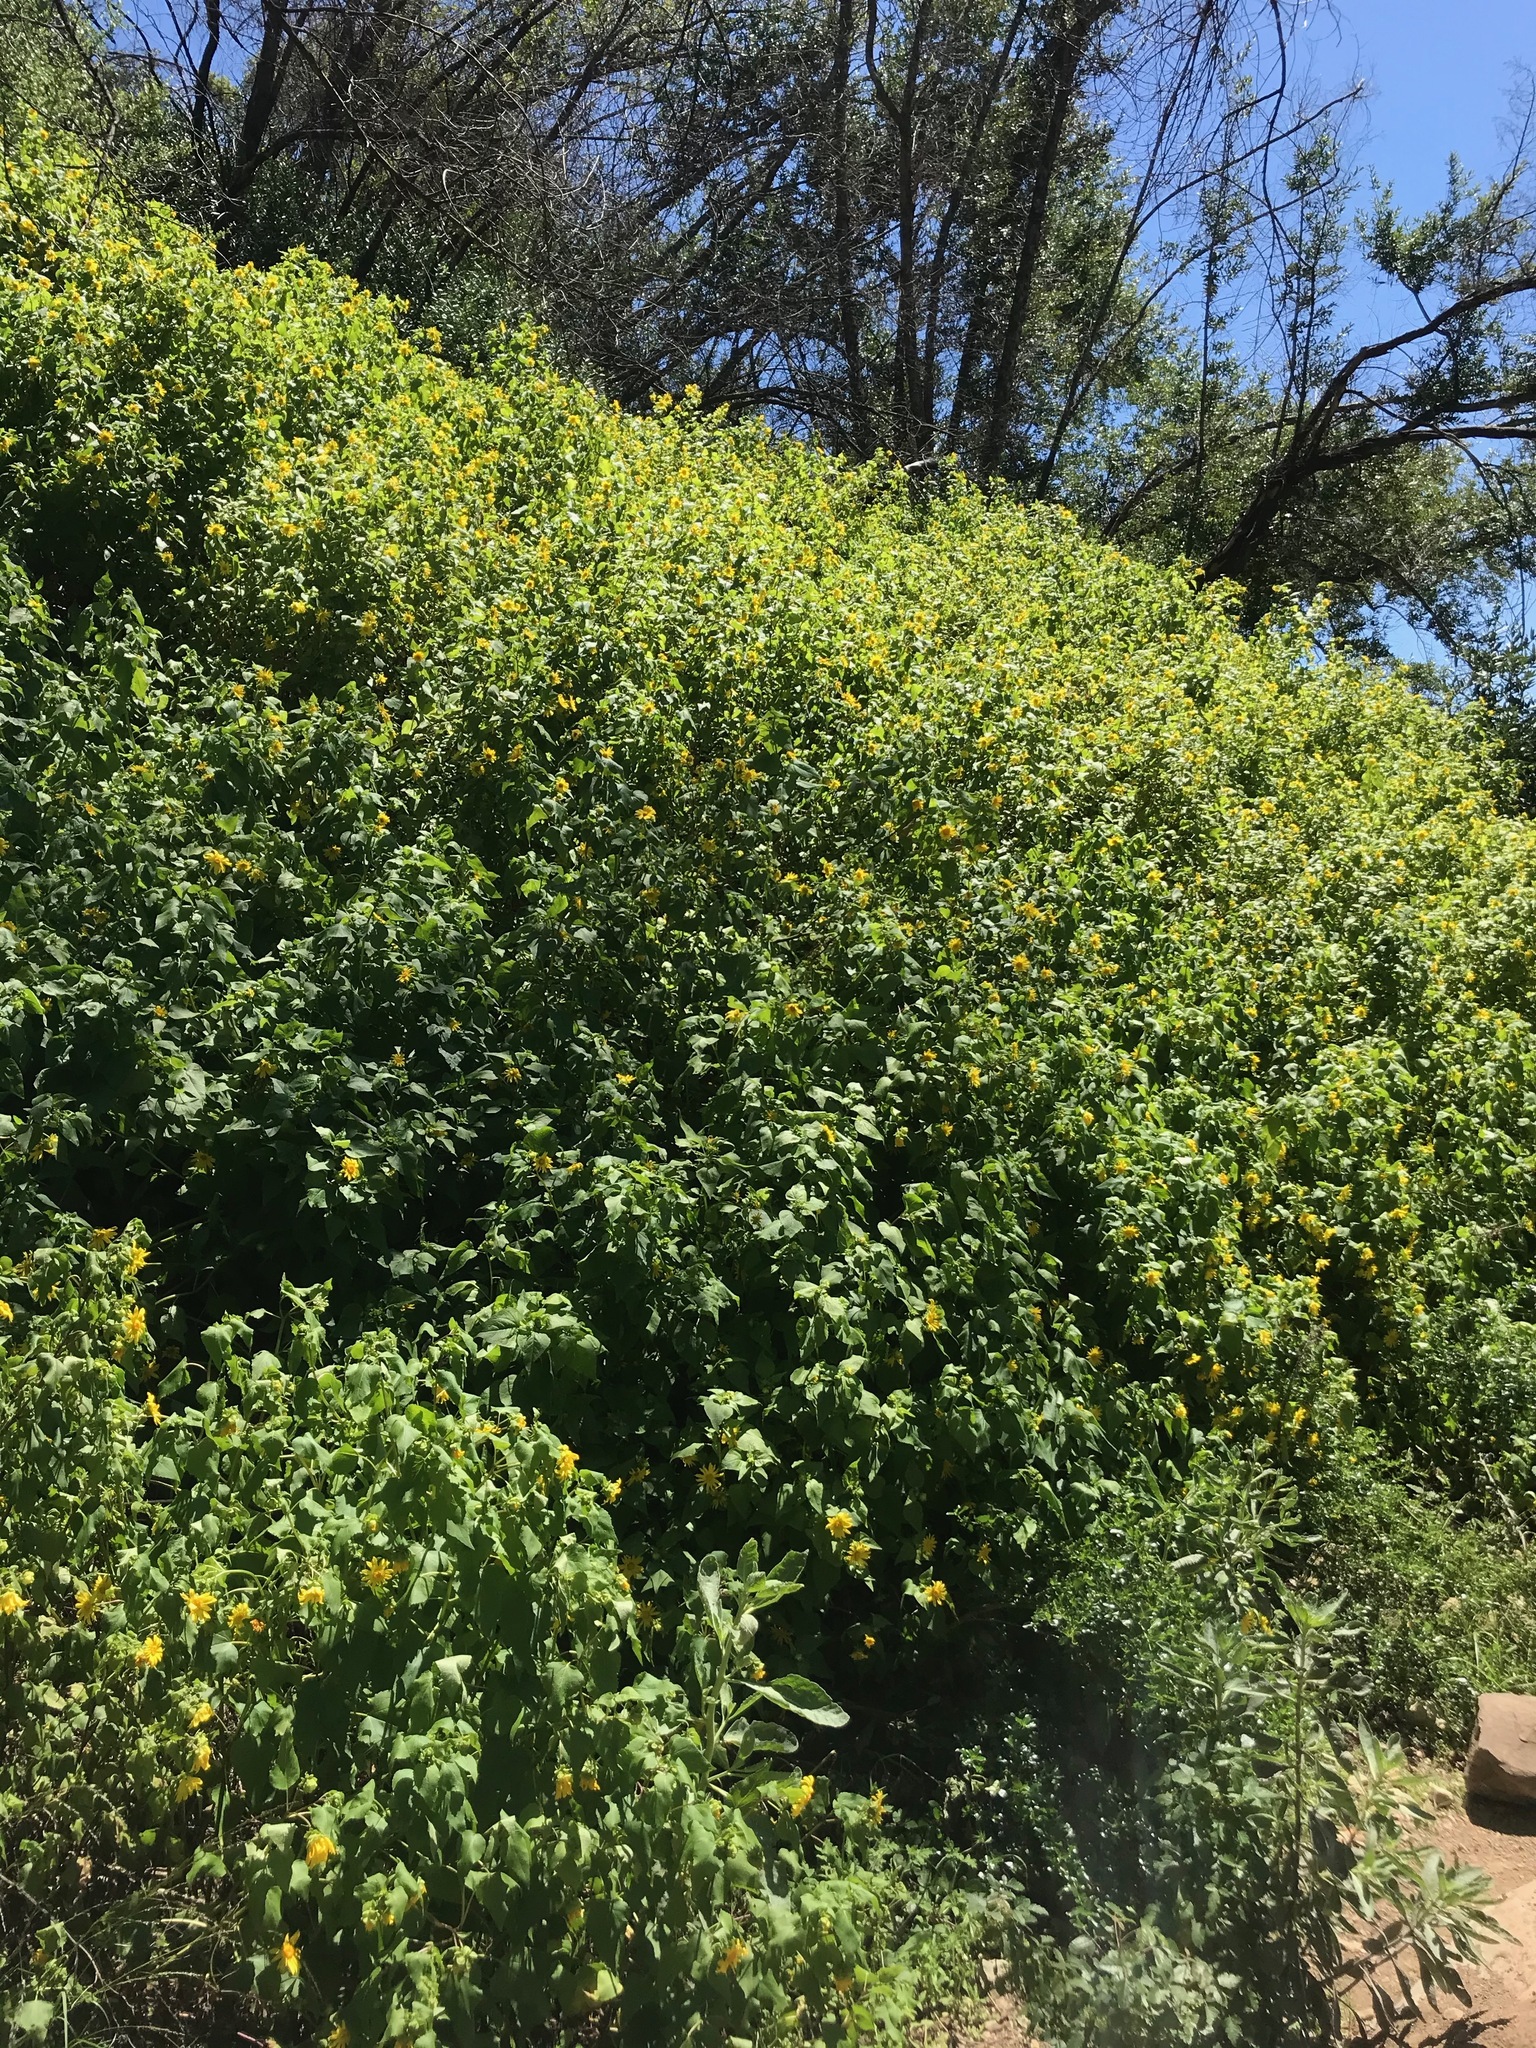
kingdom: Plantae
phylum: Tracheophyta
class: Magnoliopsida
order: Asterales
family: Asteraceae
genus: Venegasia
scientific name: Venegasia carpesioides
